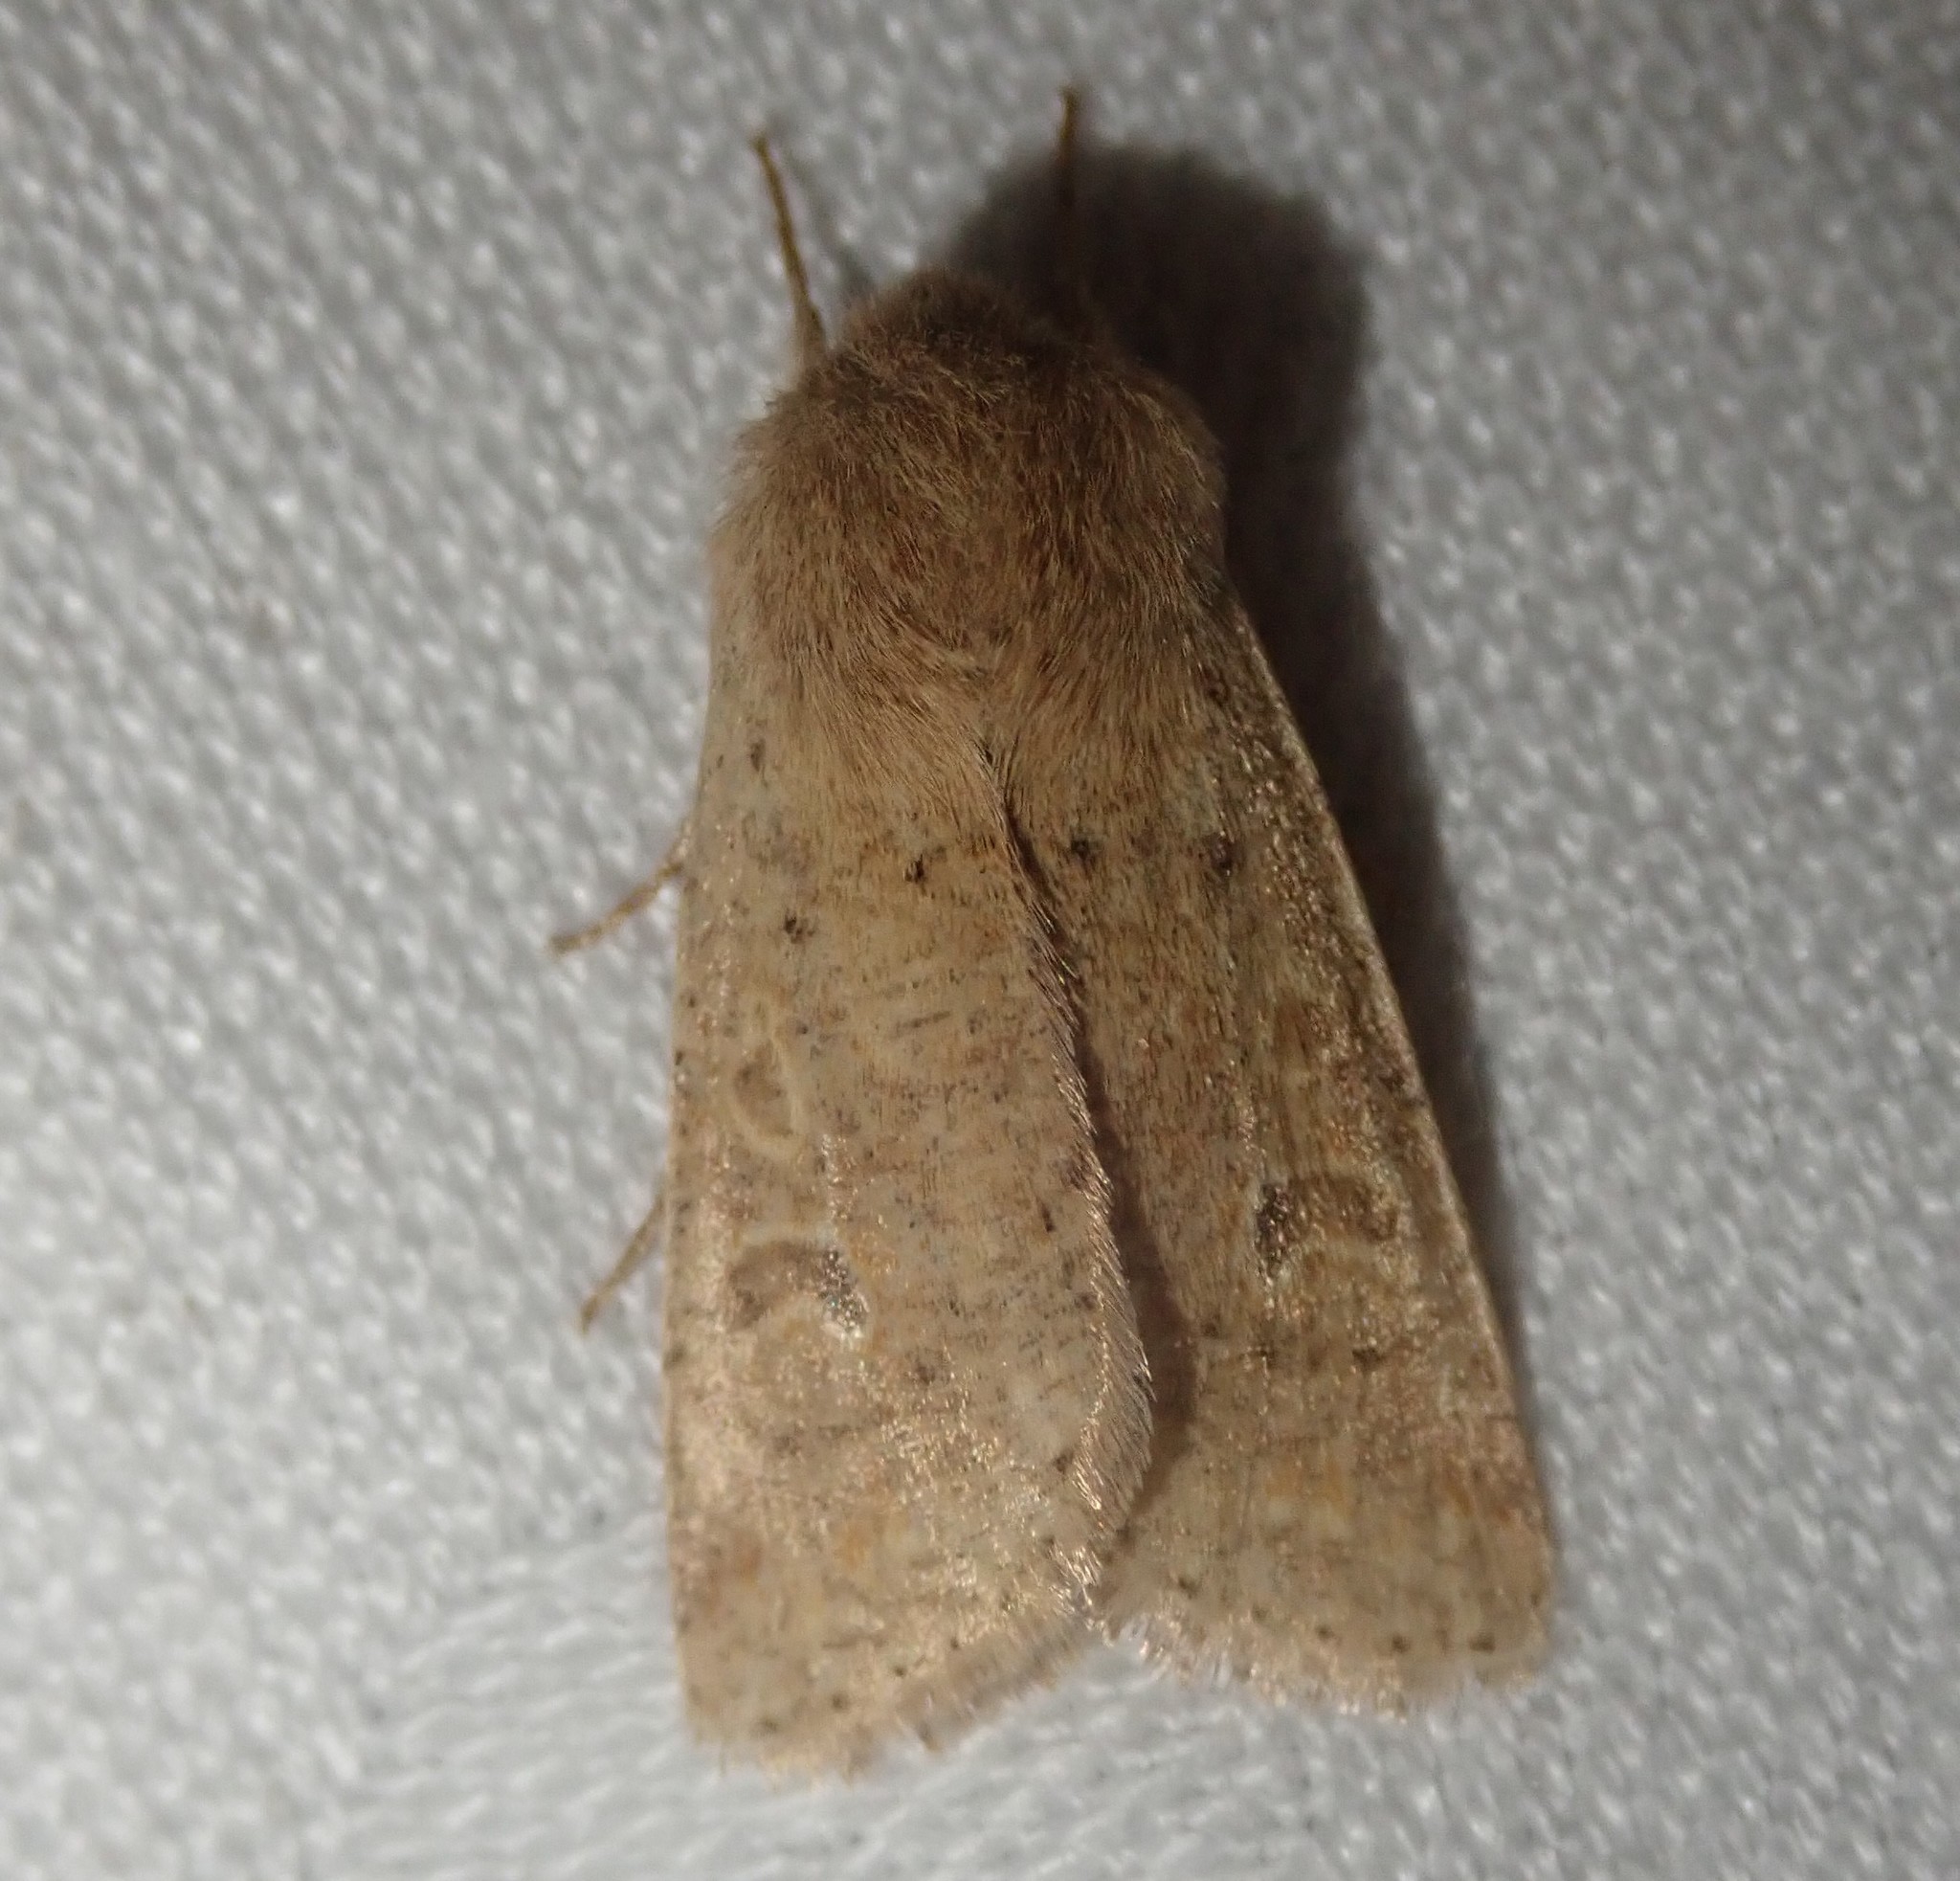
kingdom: Animalia
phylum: Arthropoda
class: Insecta
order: Lepidoptera
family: Noctuidae
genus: Orthosia
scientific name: Orthosia cruda
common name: Small quaker
